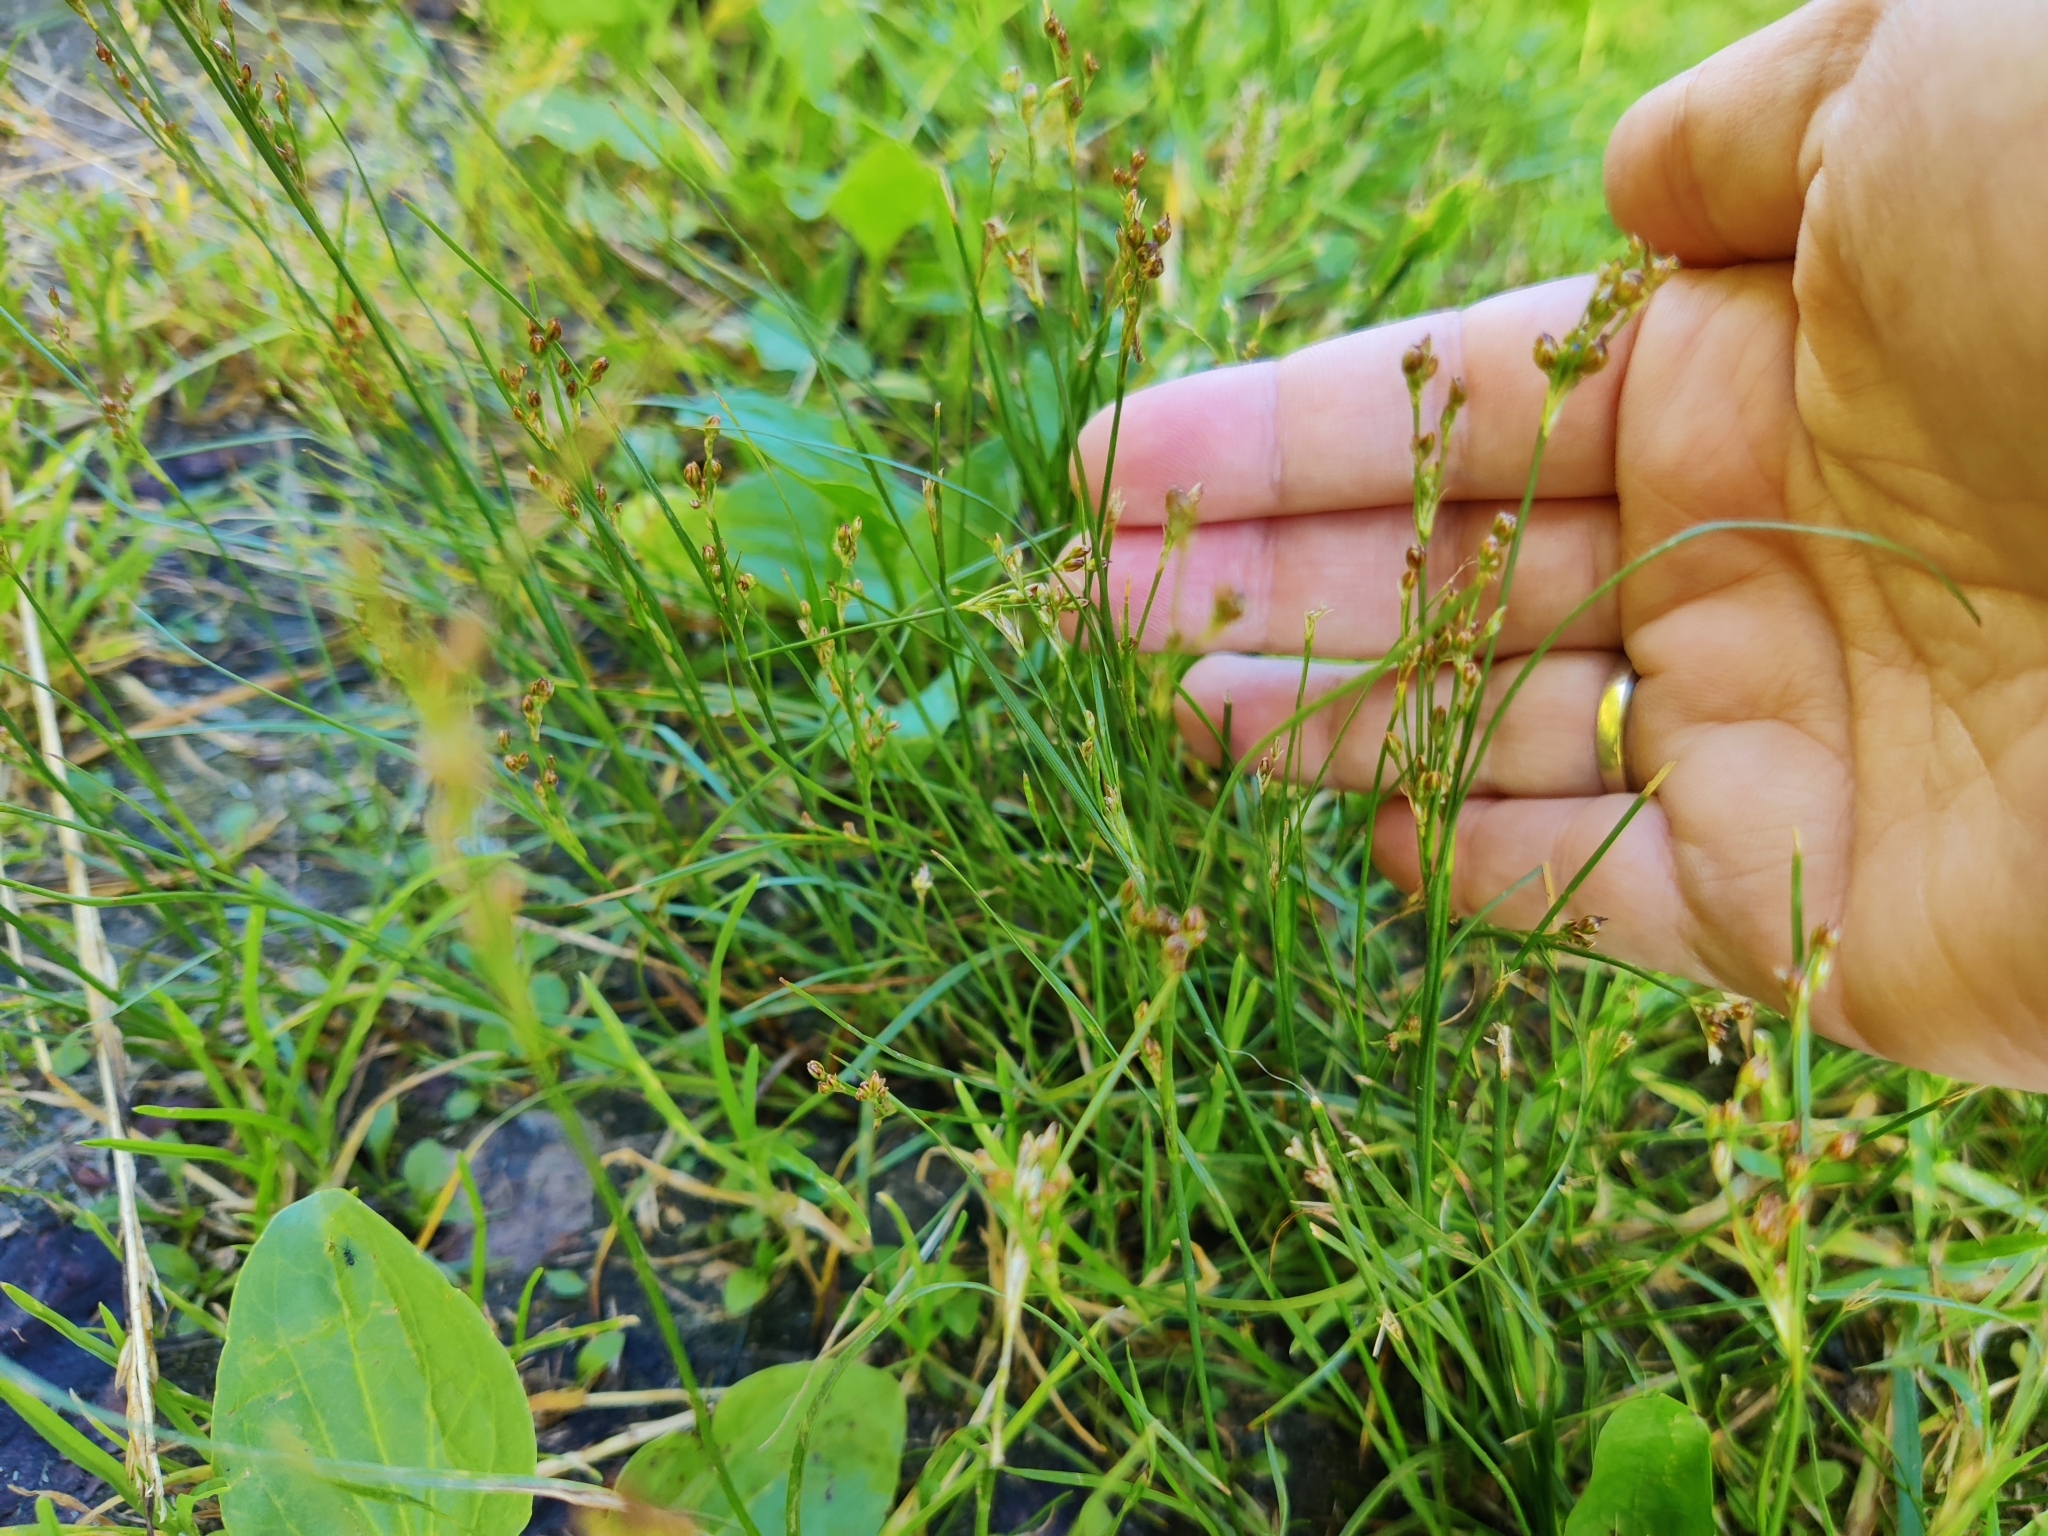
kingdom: Plantae
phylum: Tracheophyta
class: Liliopsida
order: Poales
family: Juncaceae
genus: Juncus
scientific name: Juncus compressus
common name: Round-fruited rush
